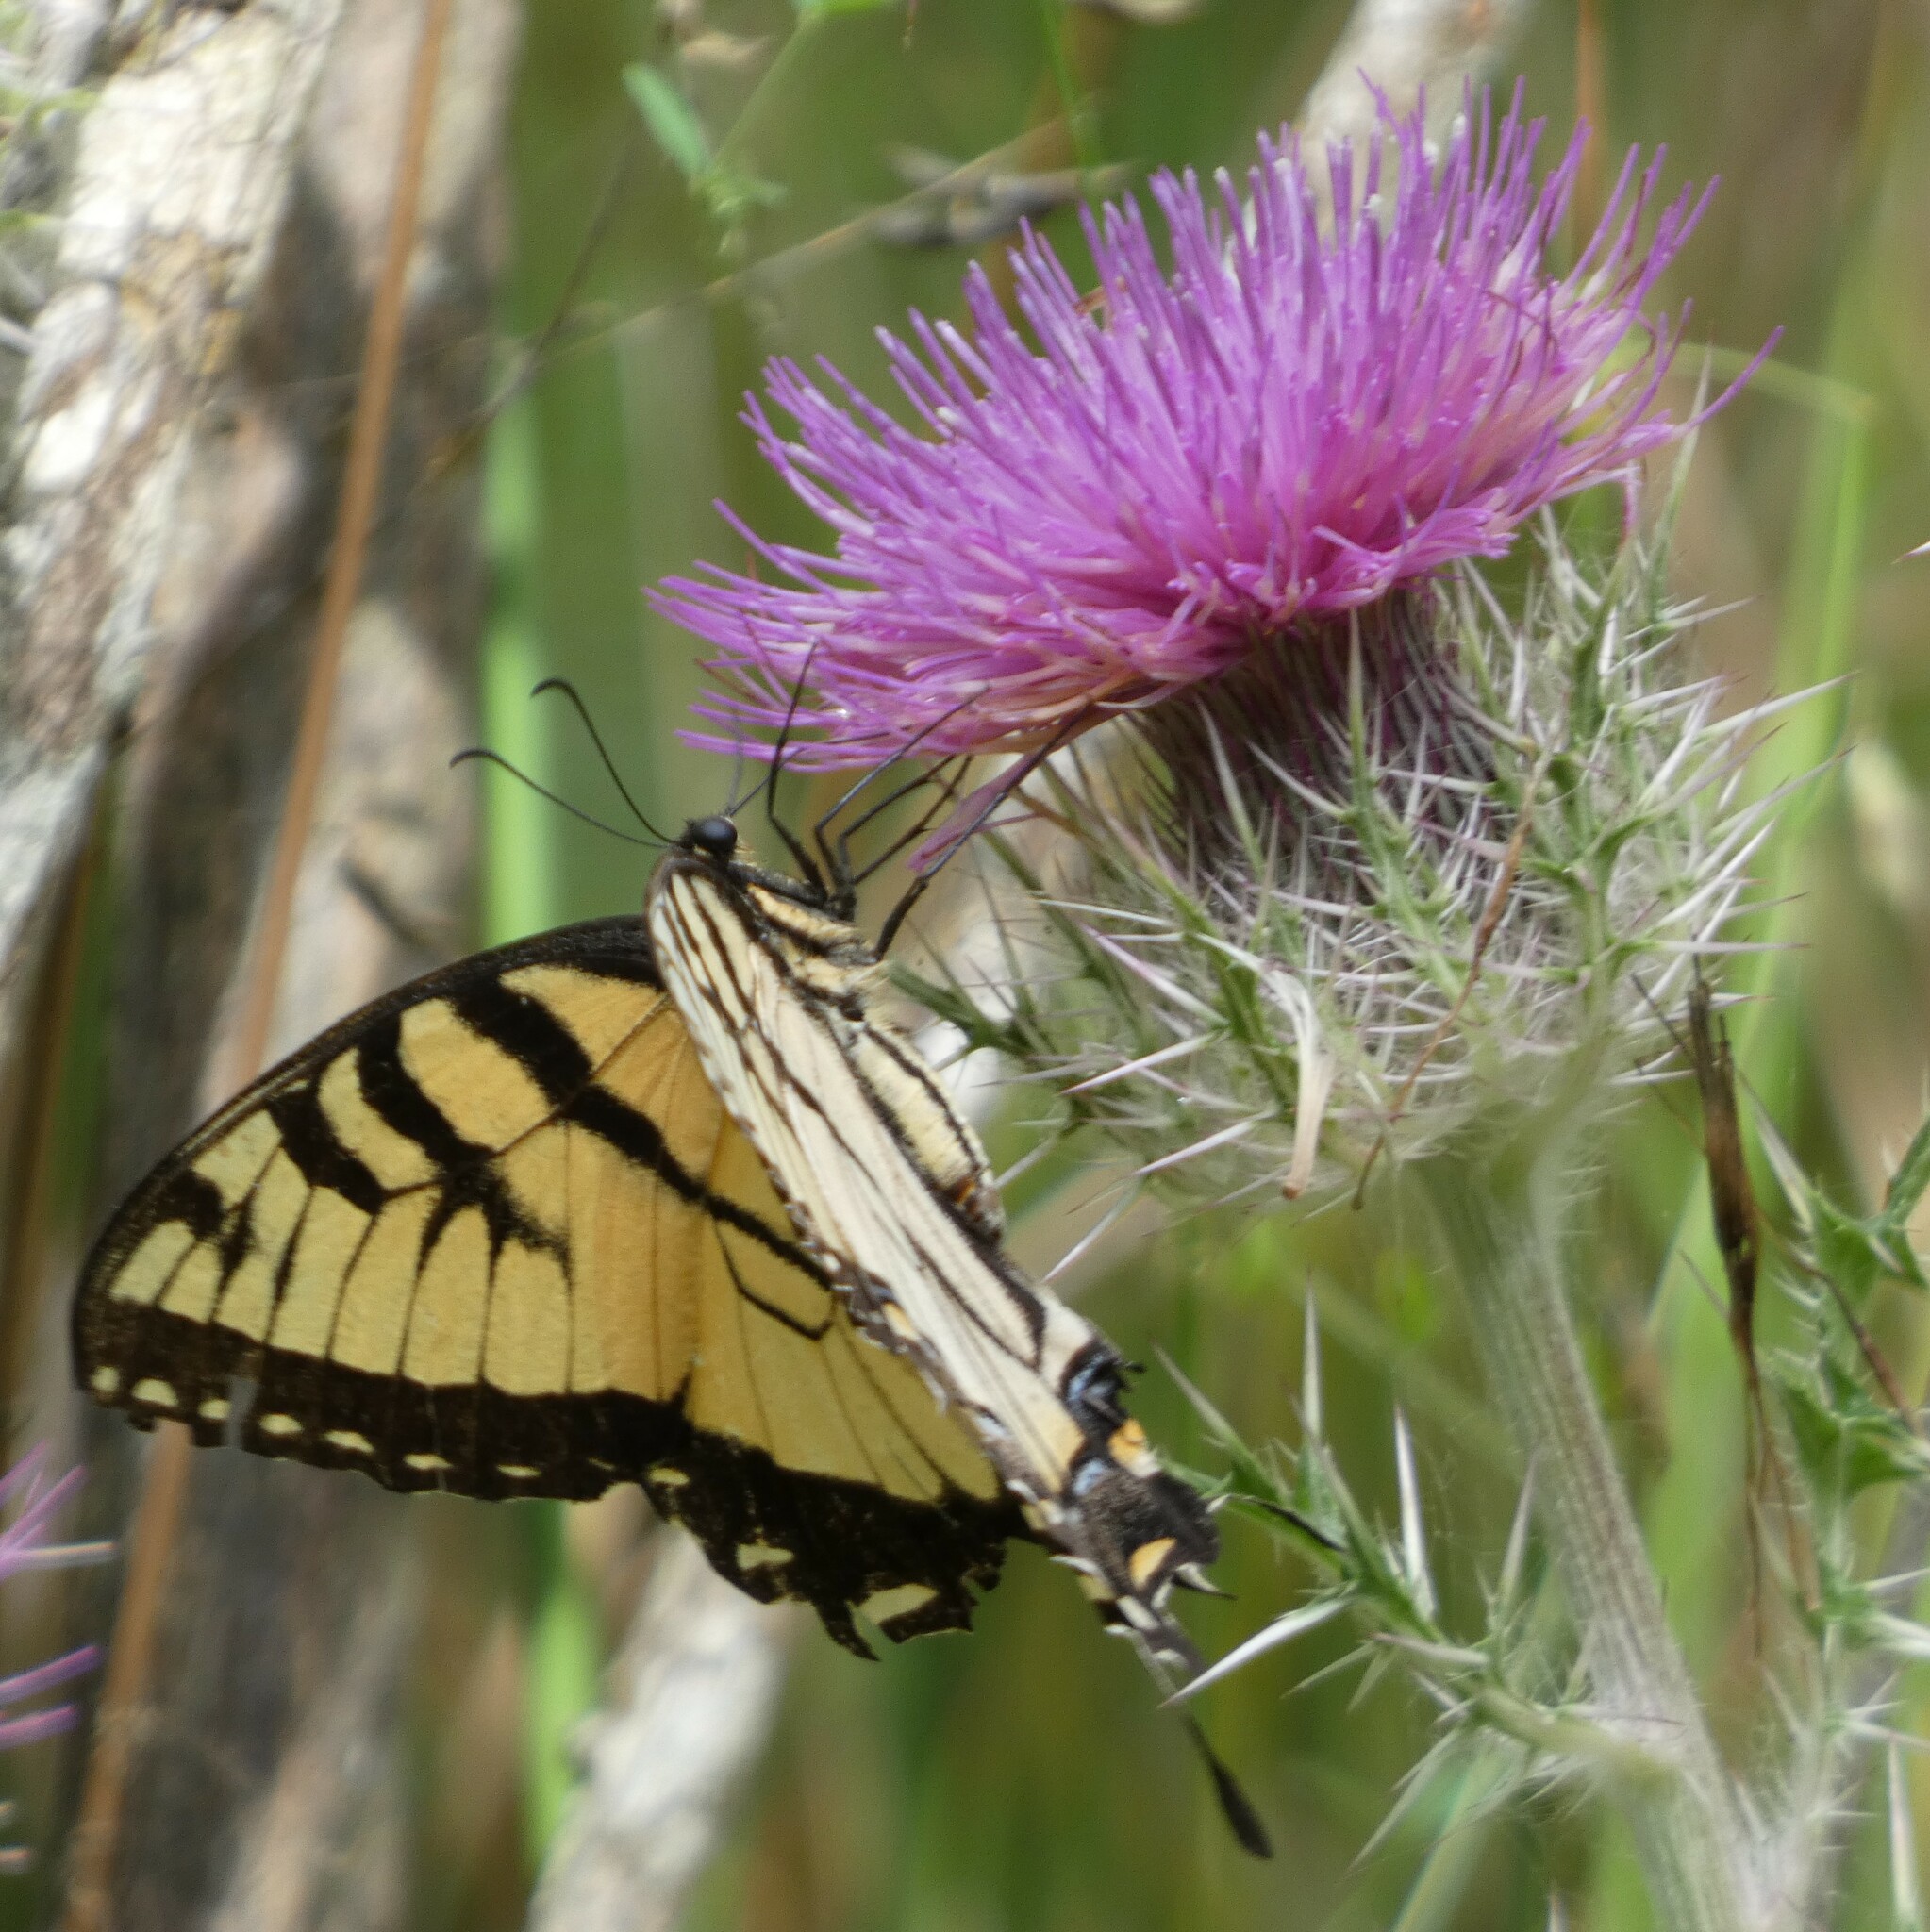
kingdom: Animalia
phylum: Arthropoda
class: Insecta
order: Lepidoptera
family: Papilionidae
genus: Papilio
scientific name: Papilio glaucus
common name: Tiger swallowtail
